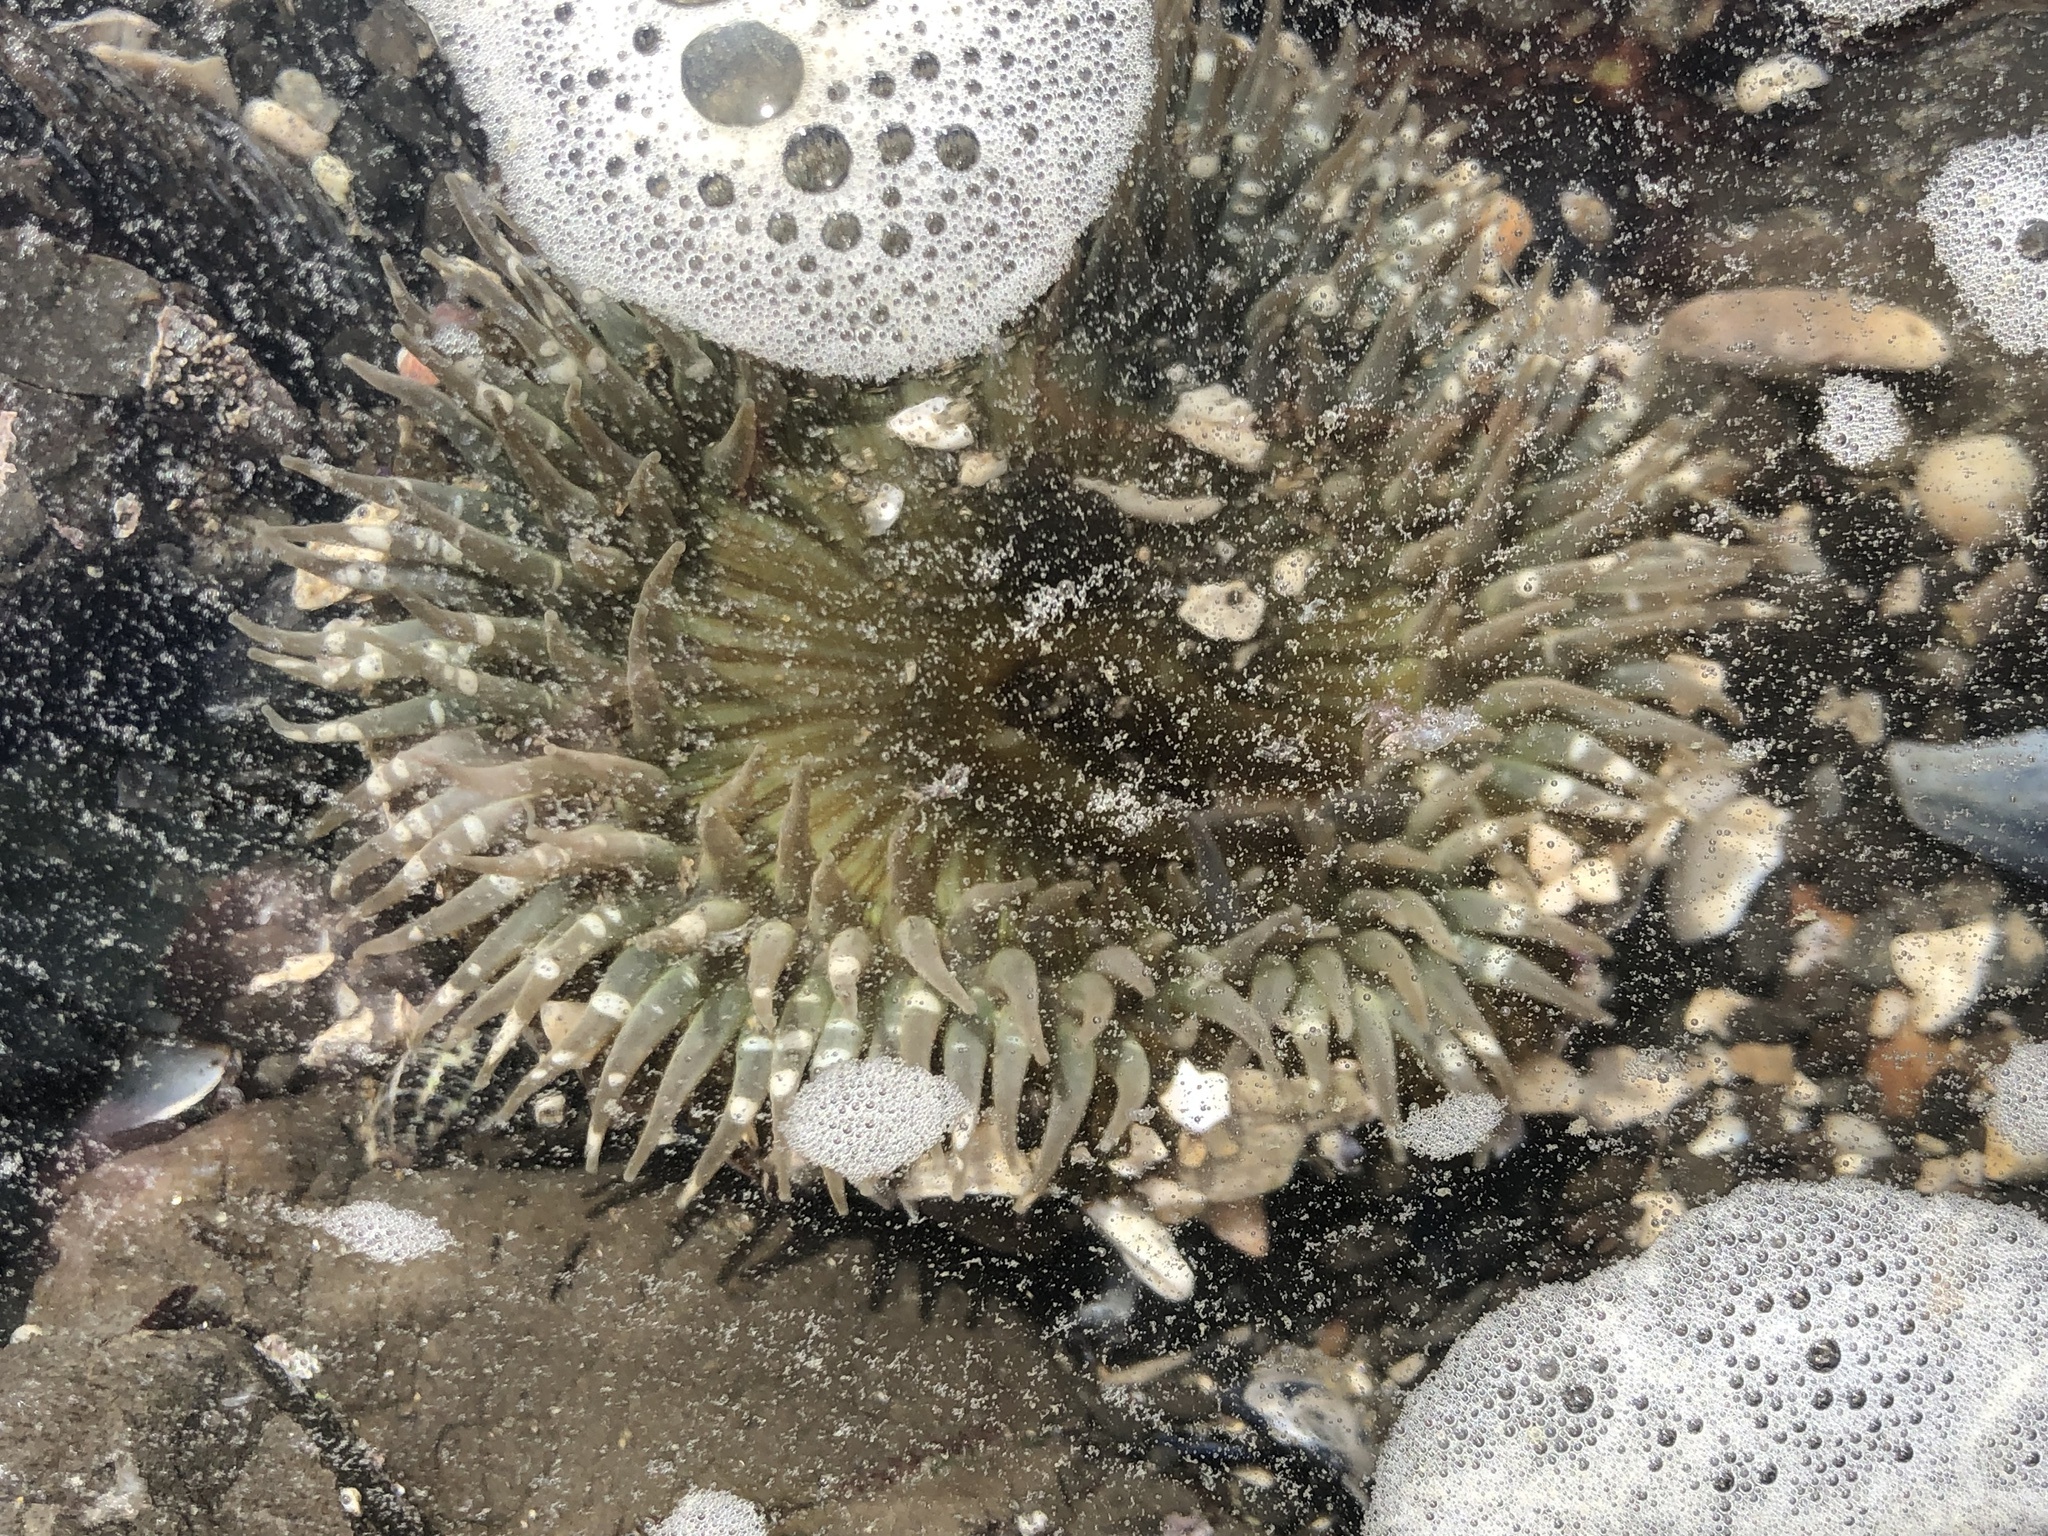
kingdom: Animalia
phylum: Cnidaria
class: Anthozoa
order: Actiniaria
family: Actiniidae
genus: Anthopleura
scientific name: Anthopleura sola
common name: Sun anemone
